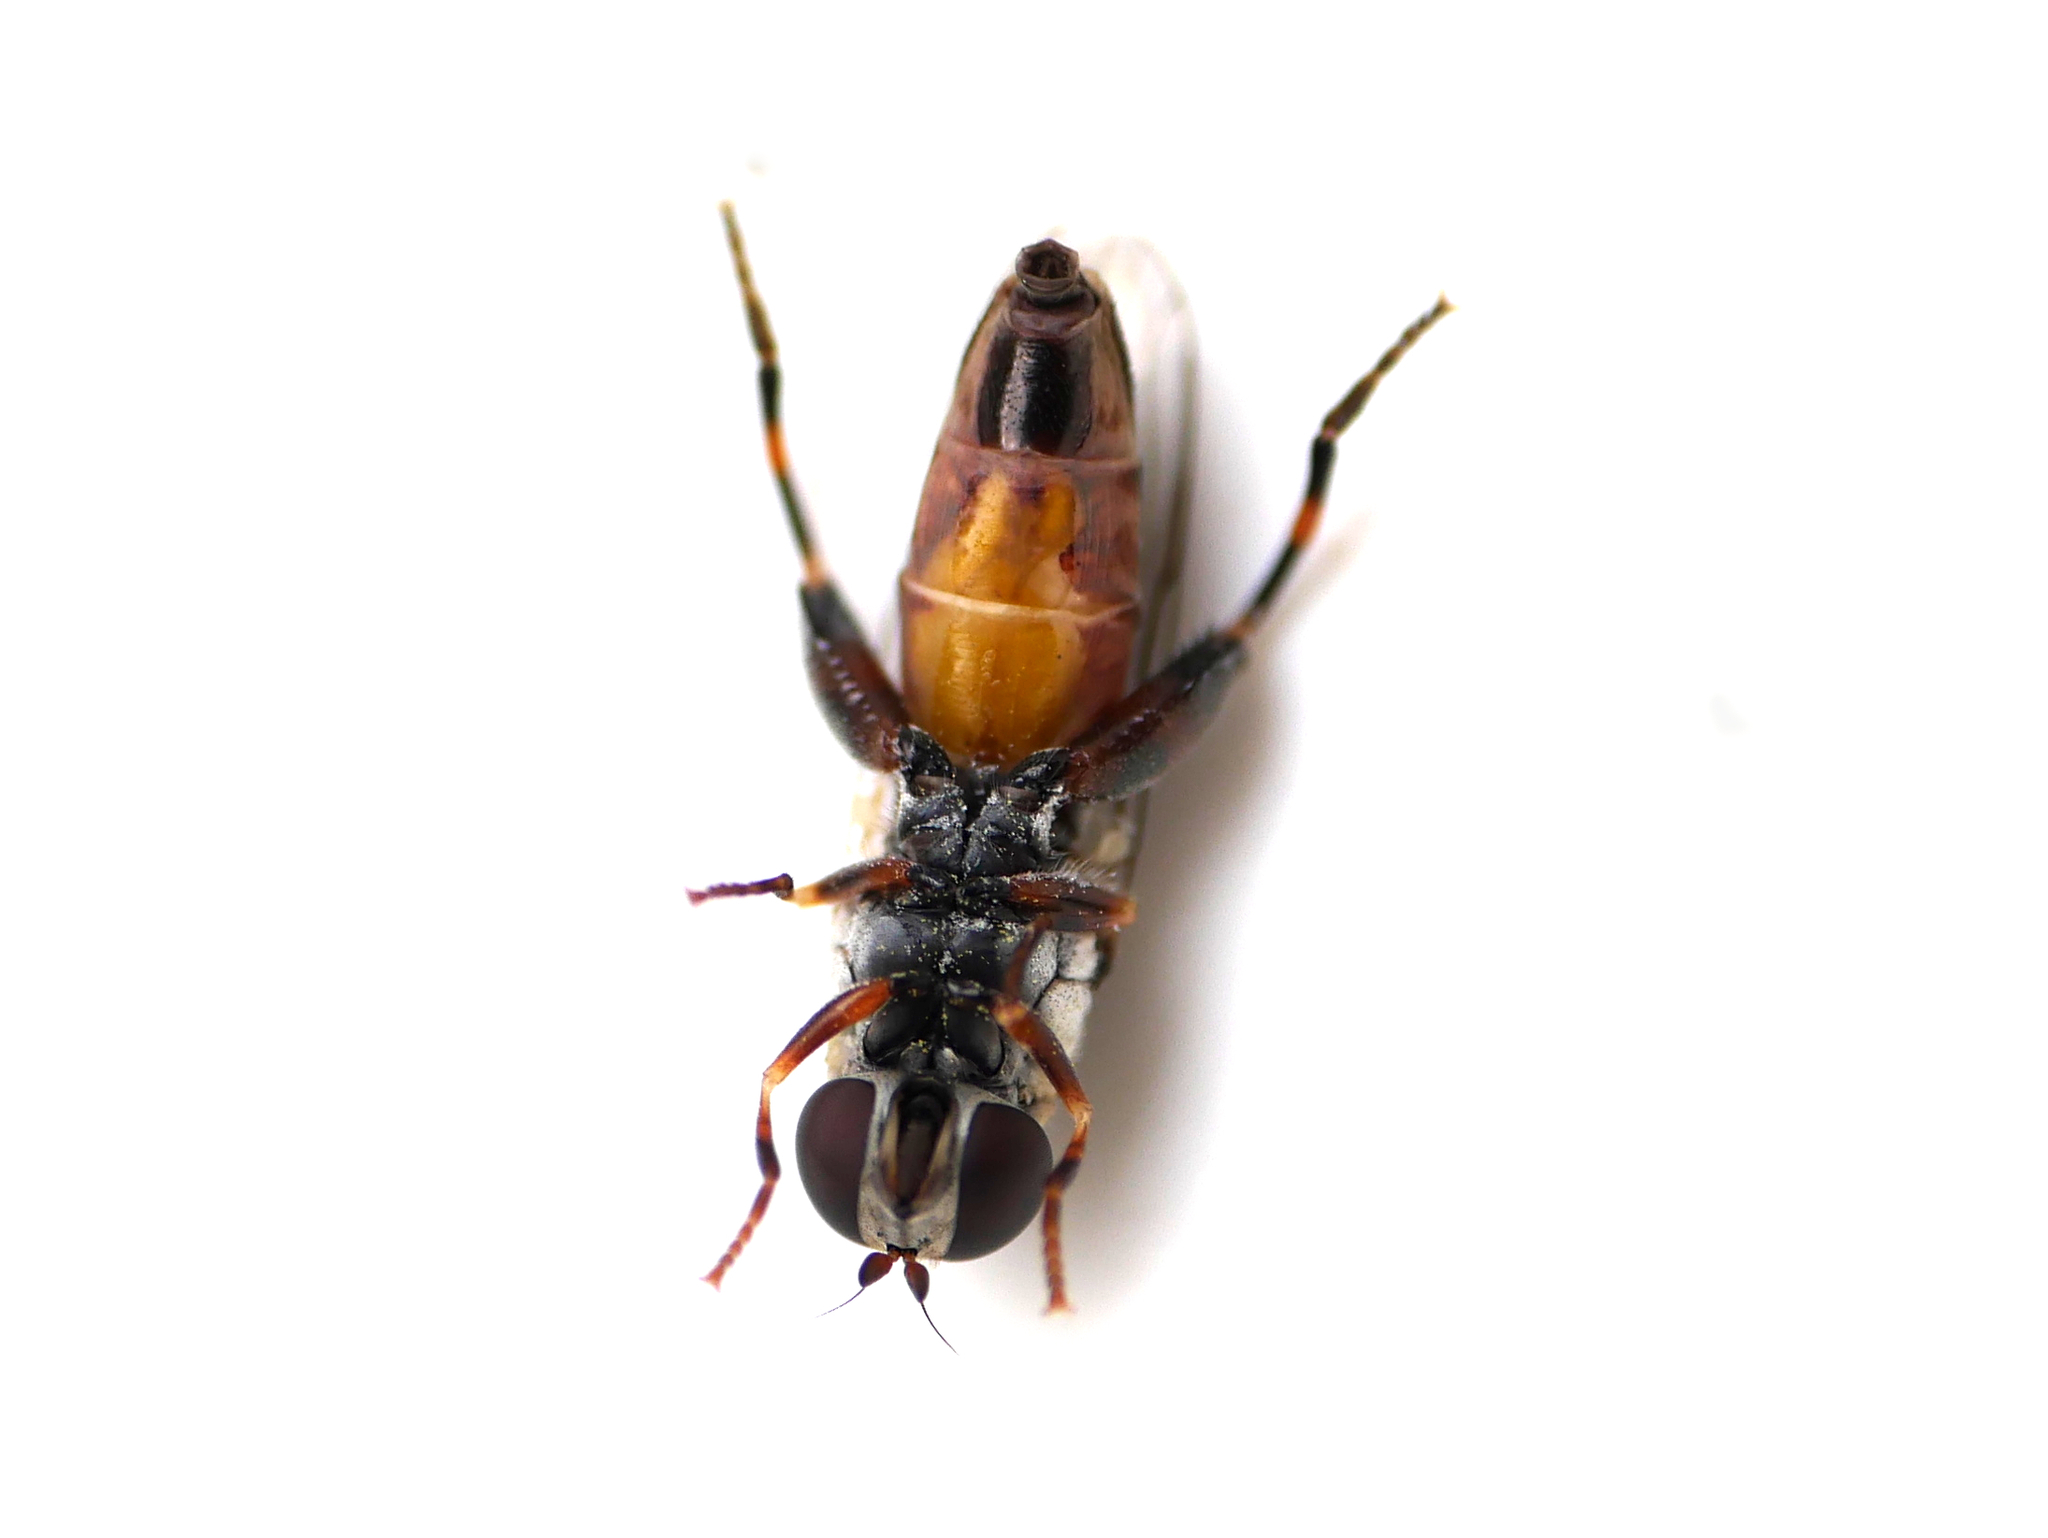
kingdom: Animalia
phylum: Arthropoda
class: Insecta
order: Diptera
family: Syrphidae
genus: Syritta
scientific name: Syritta pipiens
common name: Hover fly
